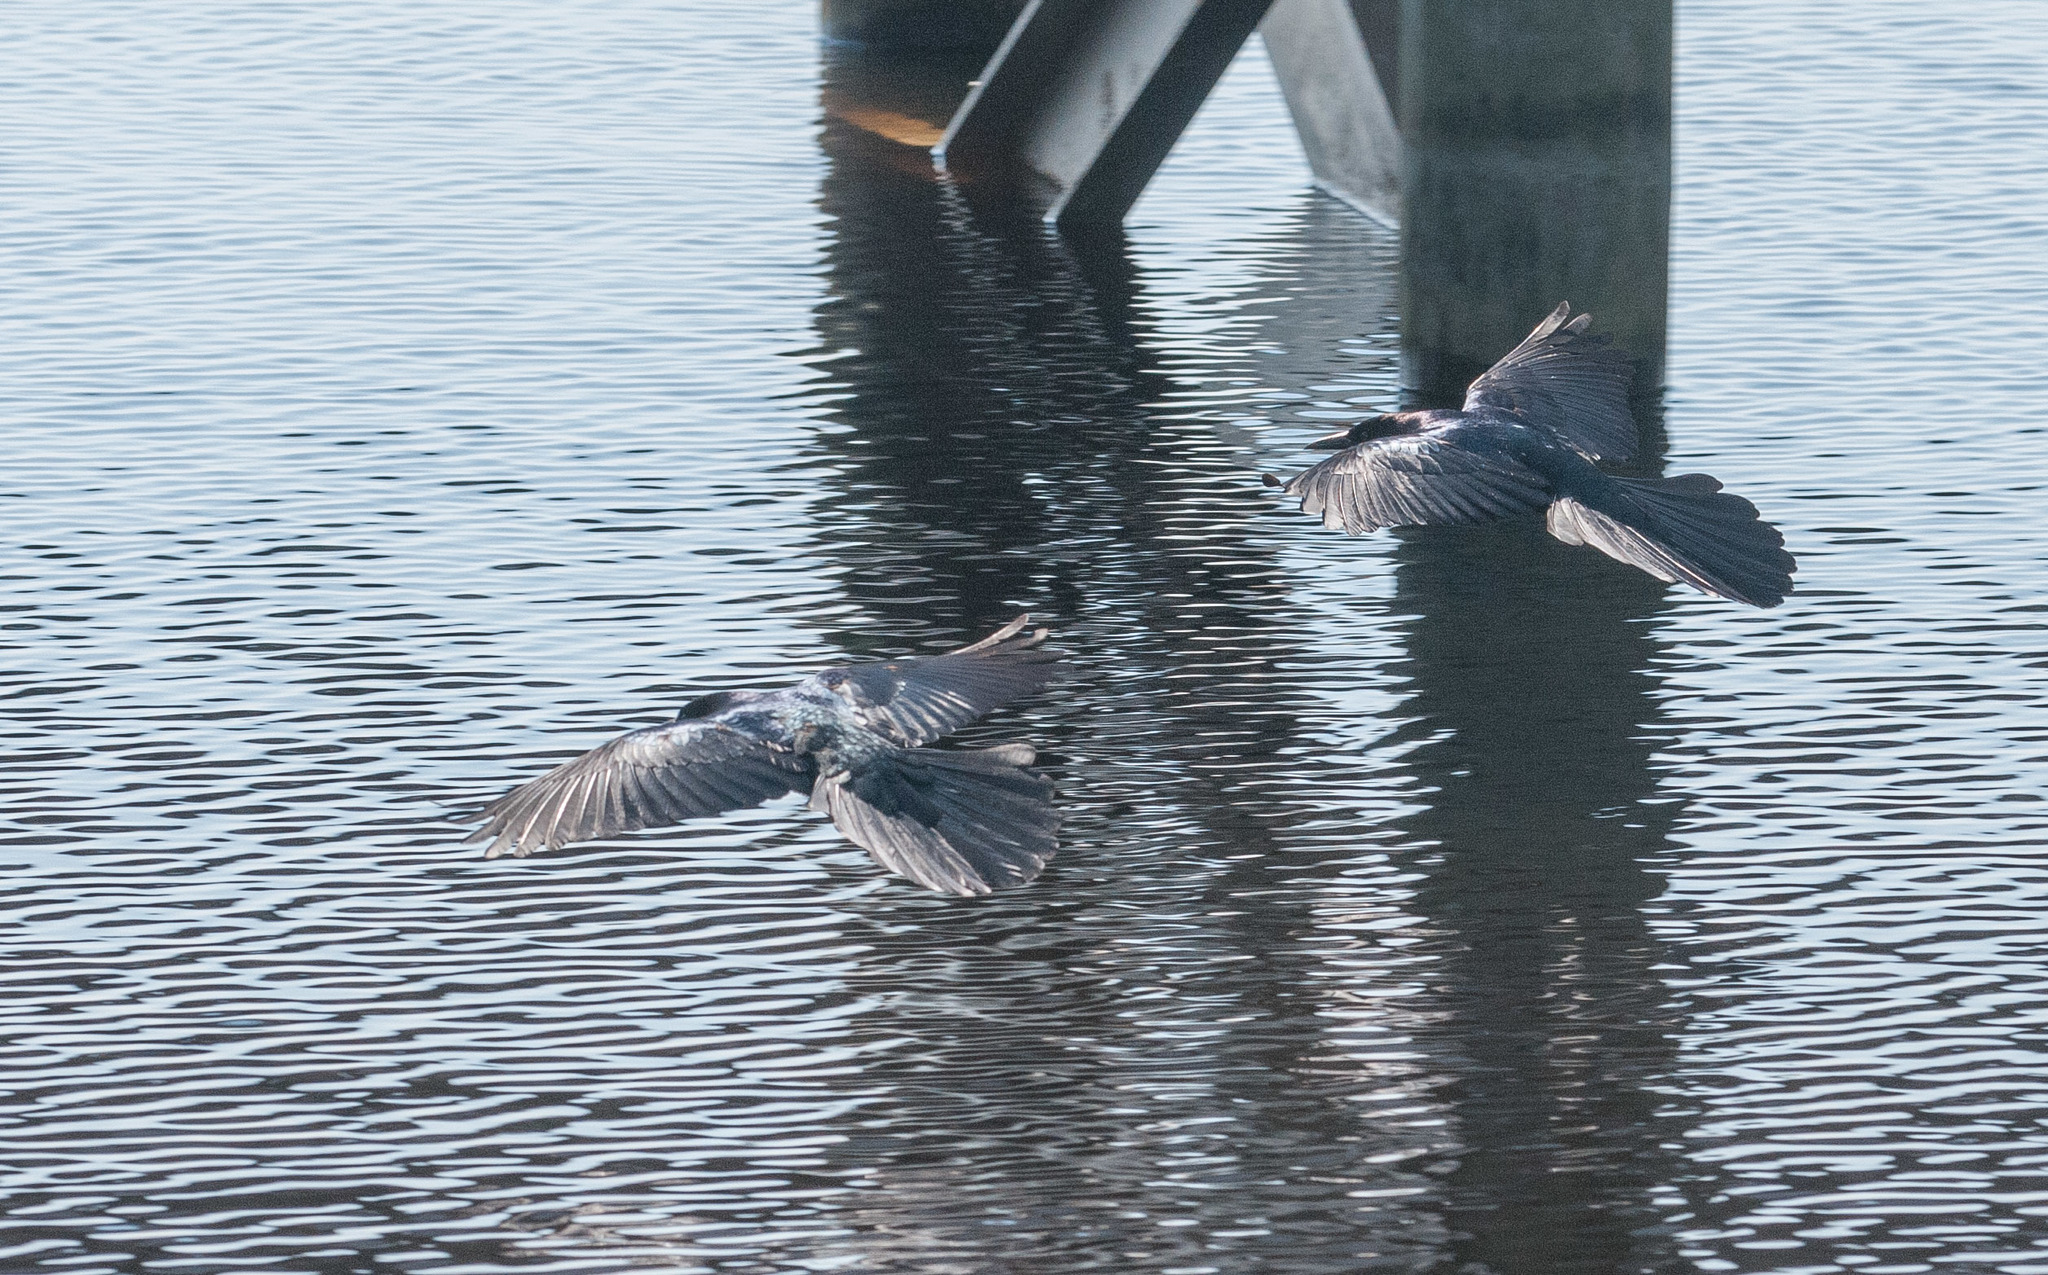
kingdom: Animalia
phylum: Chordata
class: Aves
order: Passeriformes
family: Icteridae
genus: Quiscalus
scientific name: Quiscalus major
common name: Boat-tailed grackle
